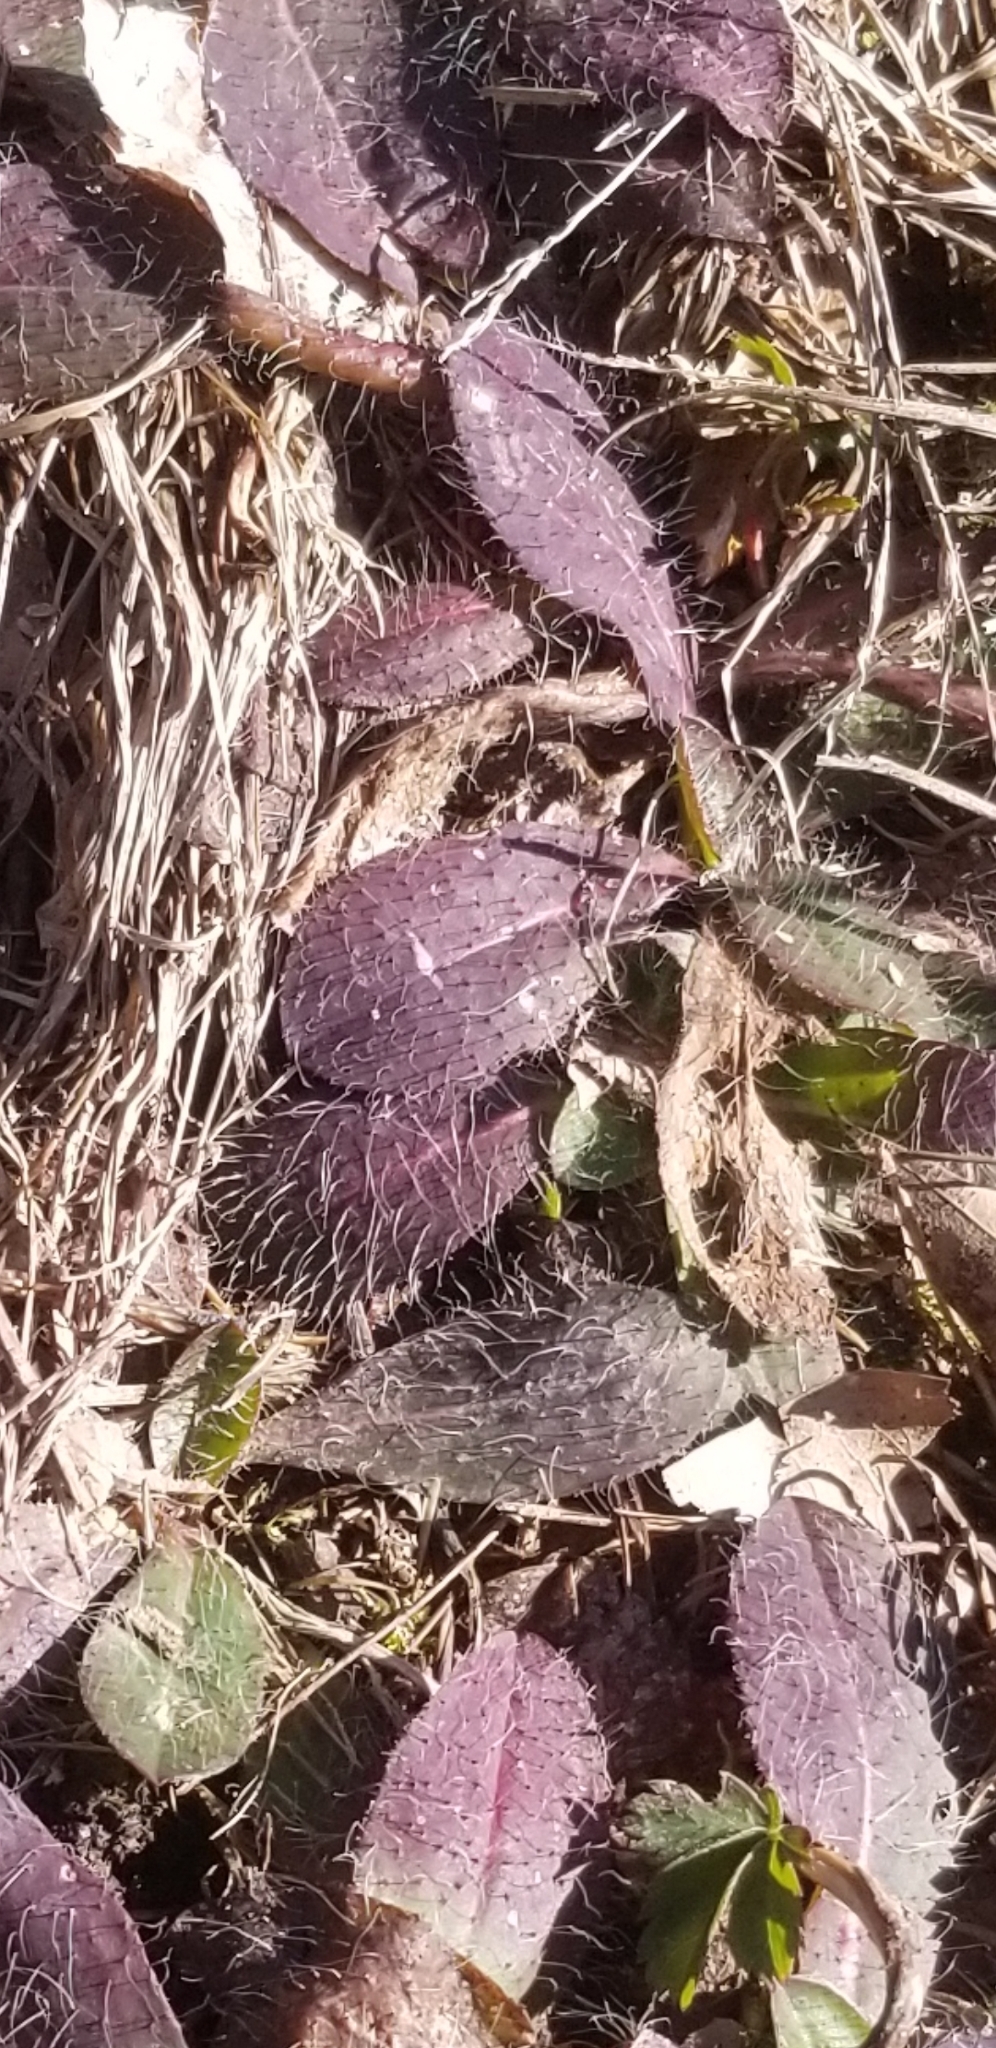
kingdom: Plantae
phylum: Tracheophyta
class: Magnoliopsida
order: Asterales
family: Asteraceae
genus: Hieracium
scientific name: Hieracium venosum
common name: Rattlesnake hawkweed
